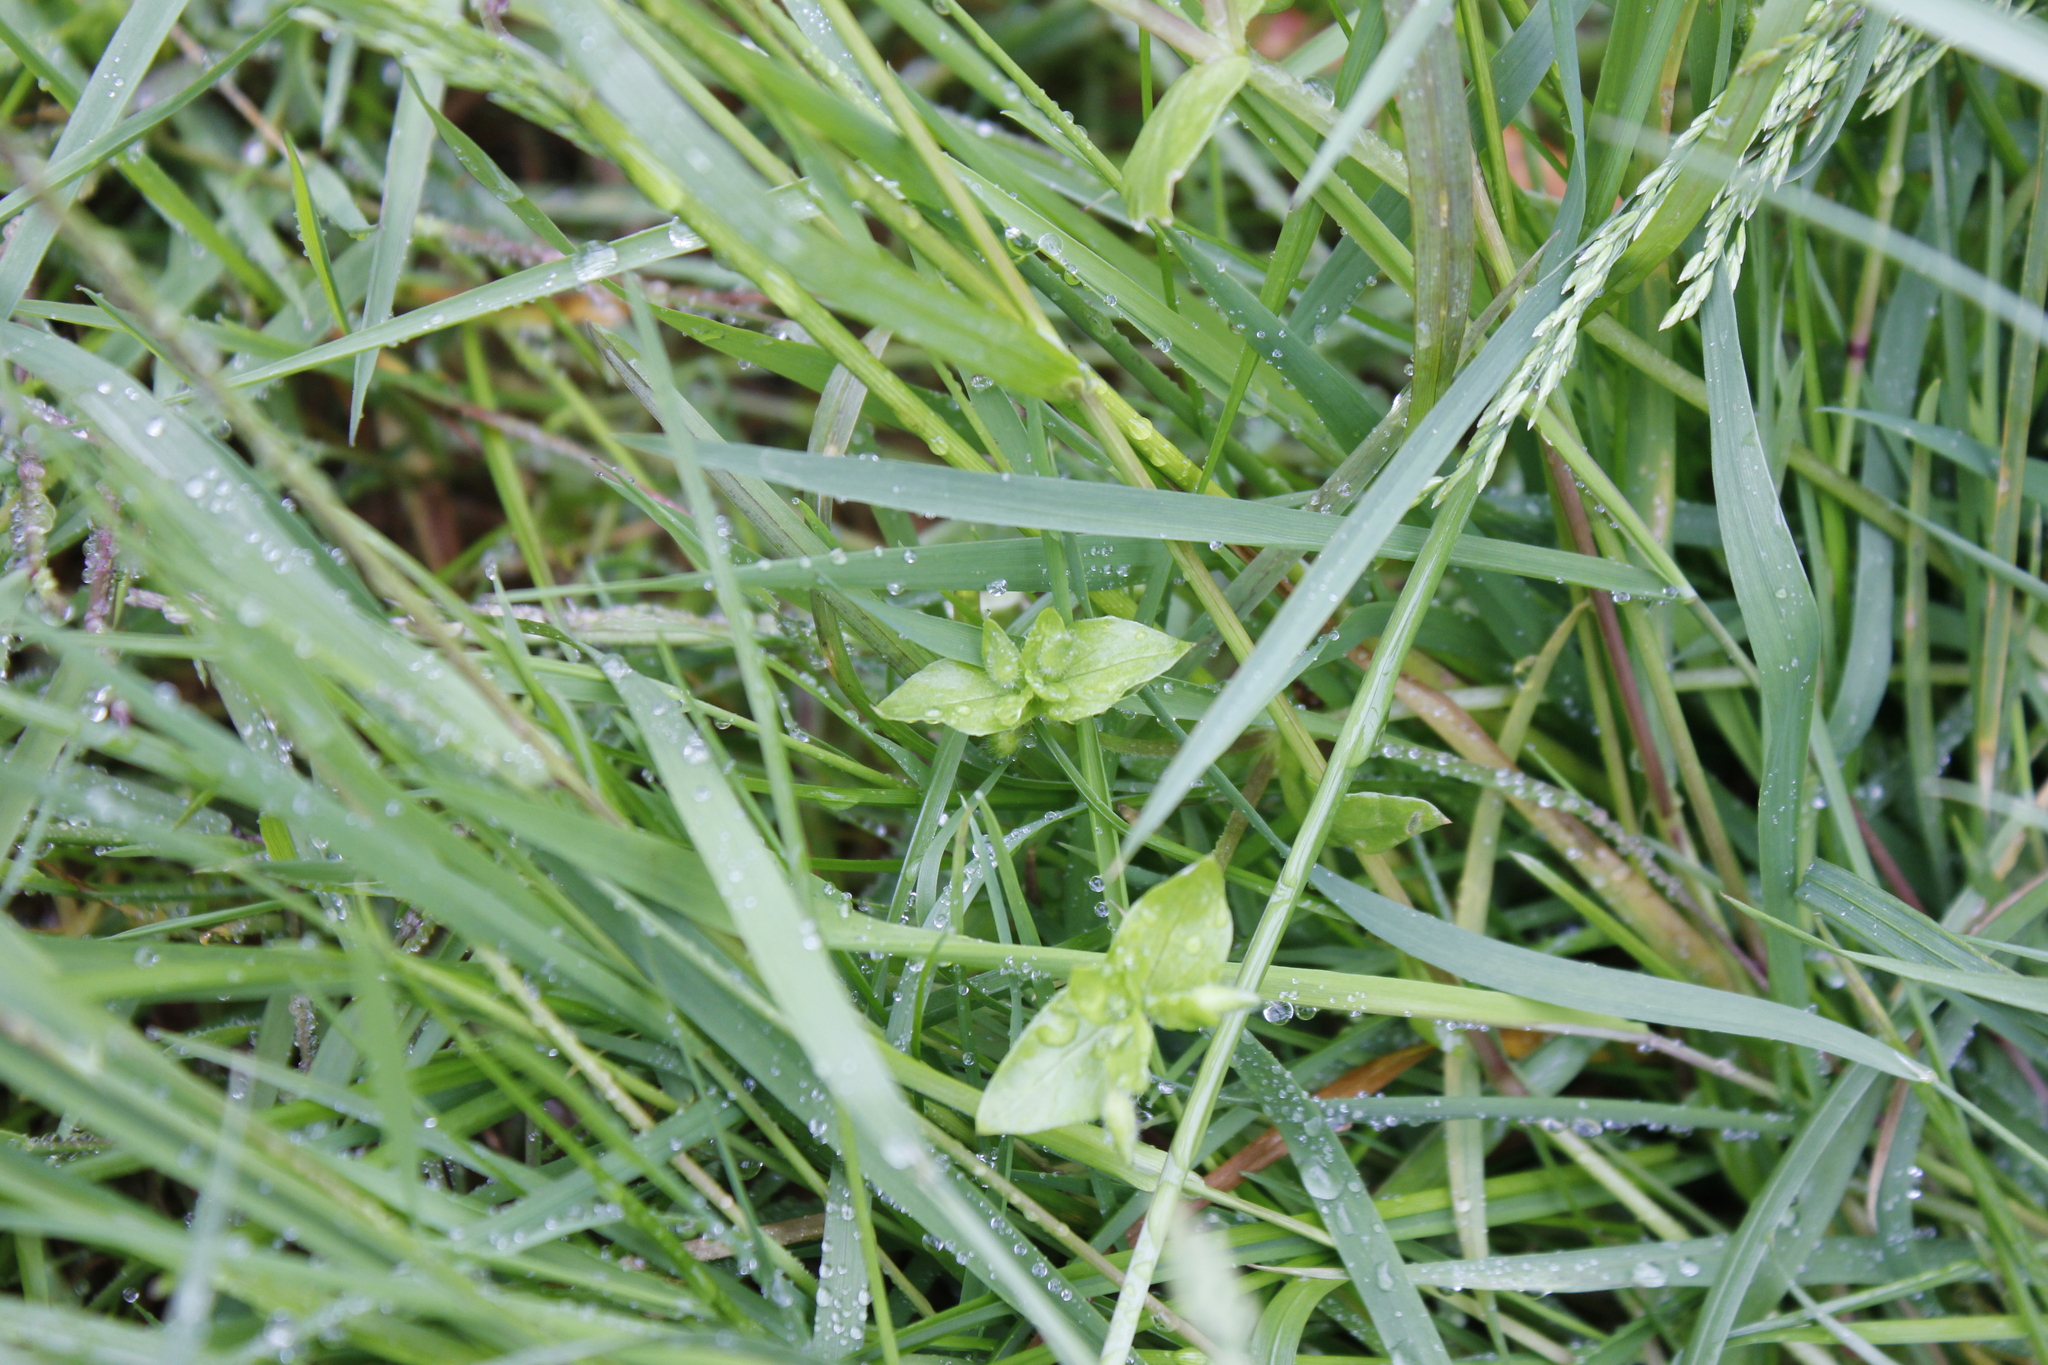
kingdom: Plantae
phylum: Tracheophyta
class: Magnoliopsida
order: Caryophyllales
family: Caryophyllaceae
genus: Stellaria
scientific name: Stellaria media
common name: Common chickweed
